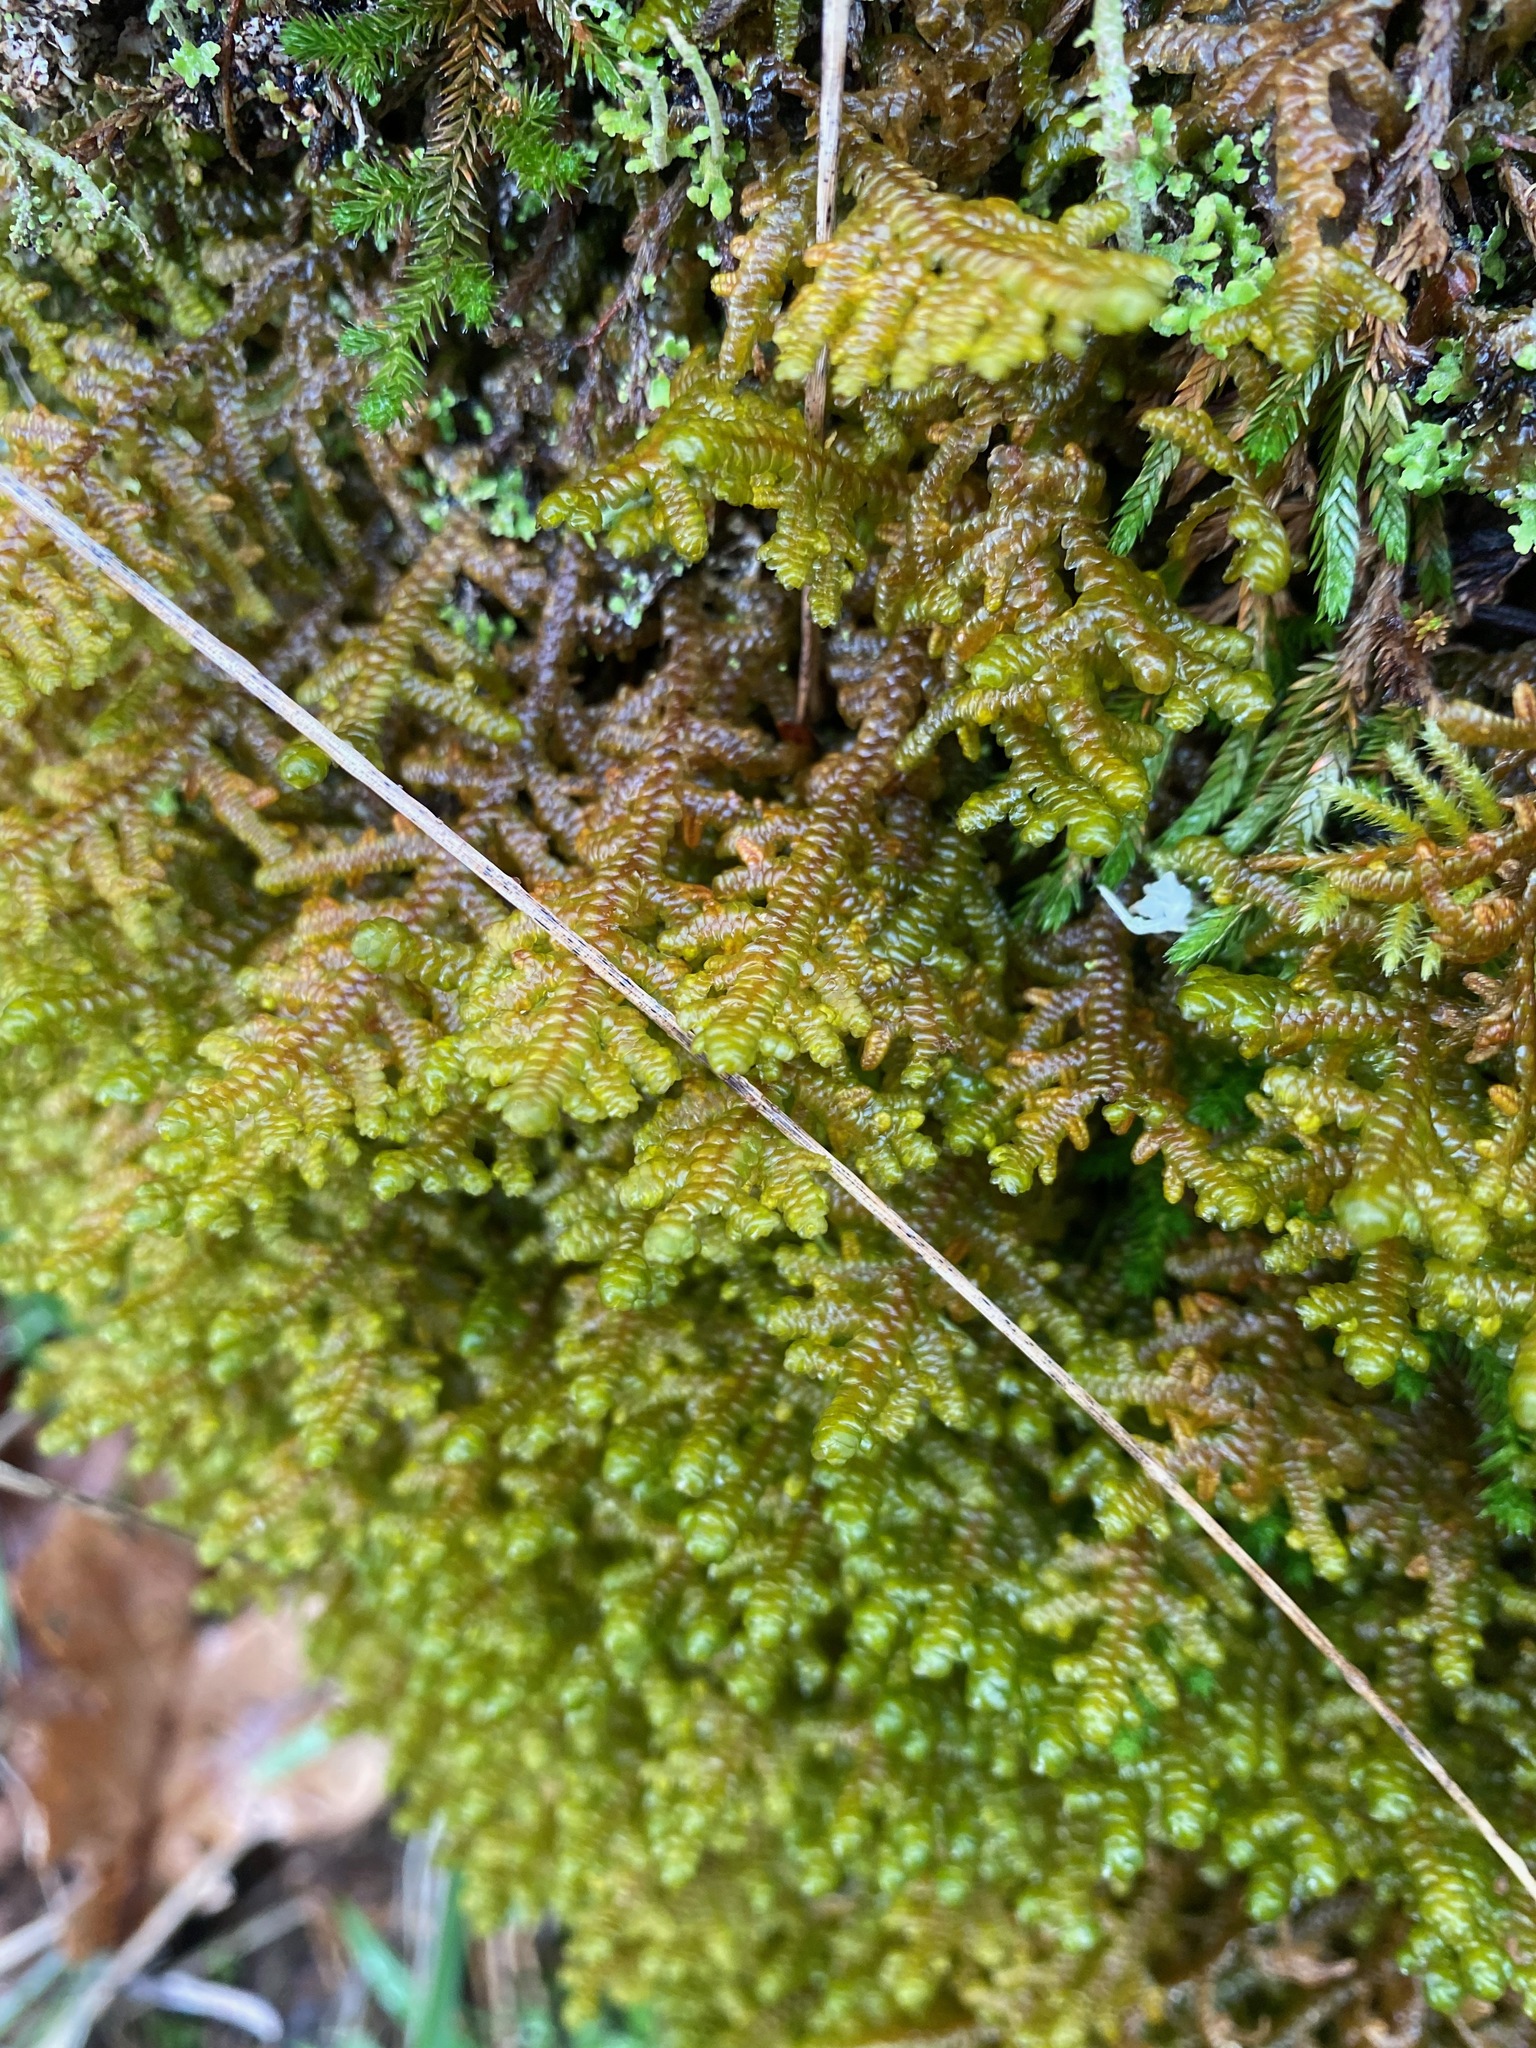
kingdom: Plantae
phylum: Marchantiophyta
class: Jungermanniopsida
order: Porellales
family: Porellaceae
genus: Porella
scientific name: Porella navicularis
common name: Tree ruffle liverwort
